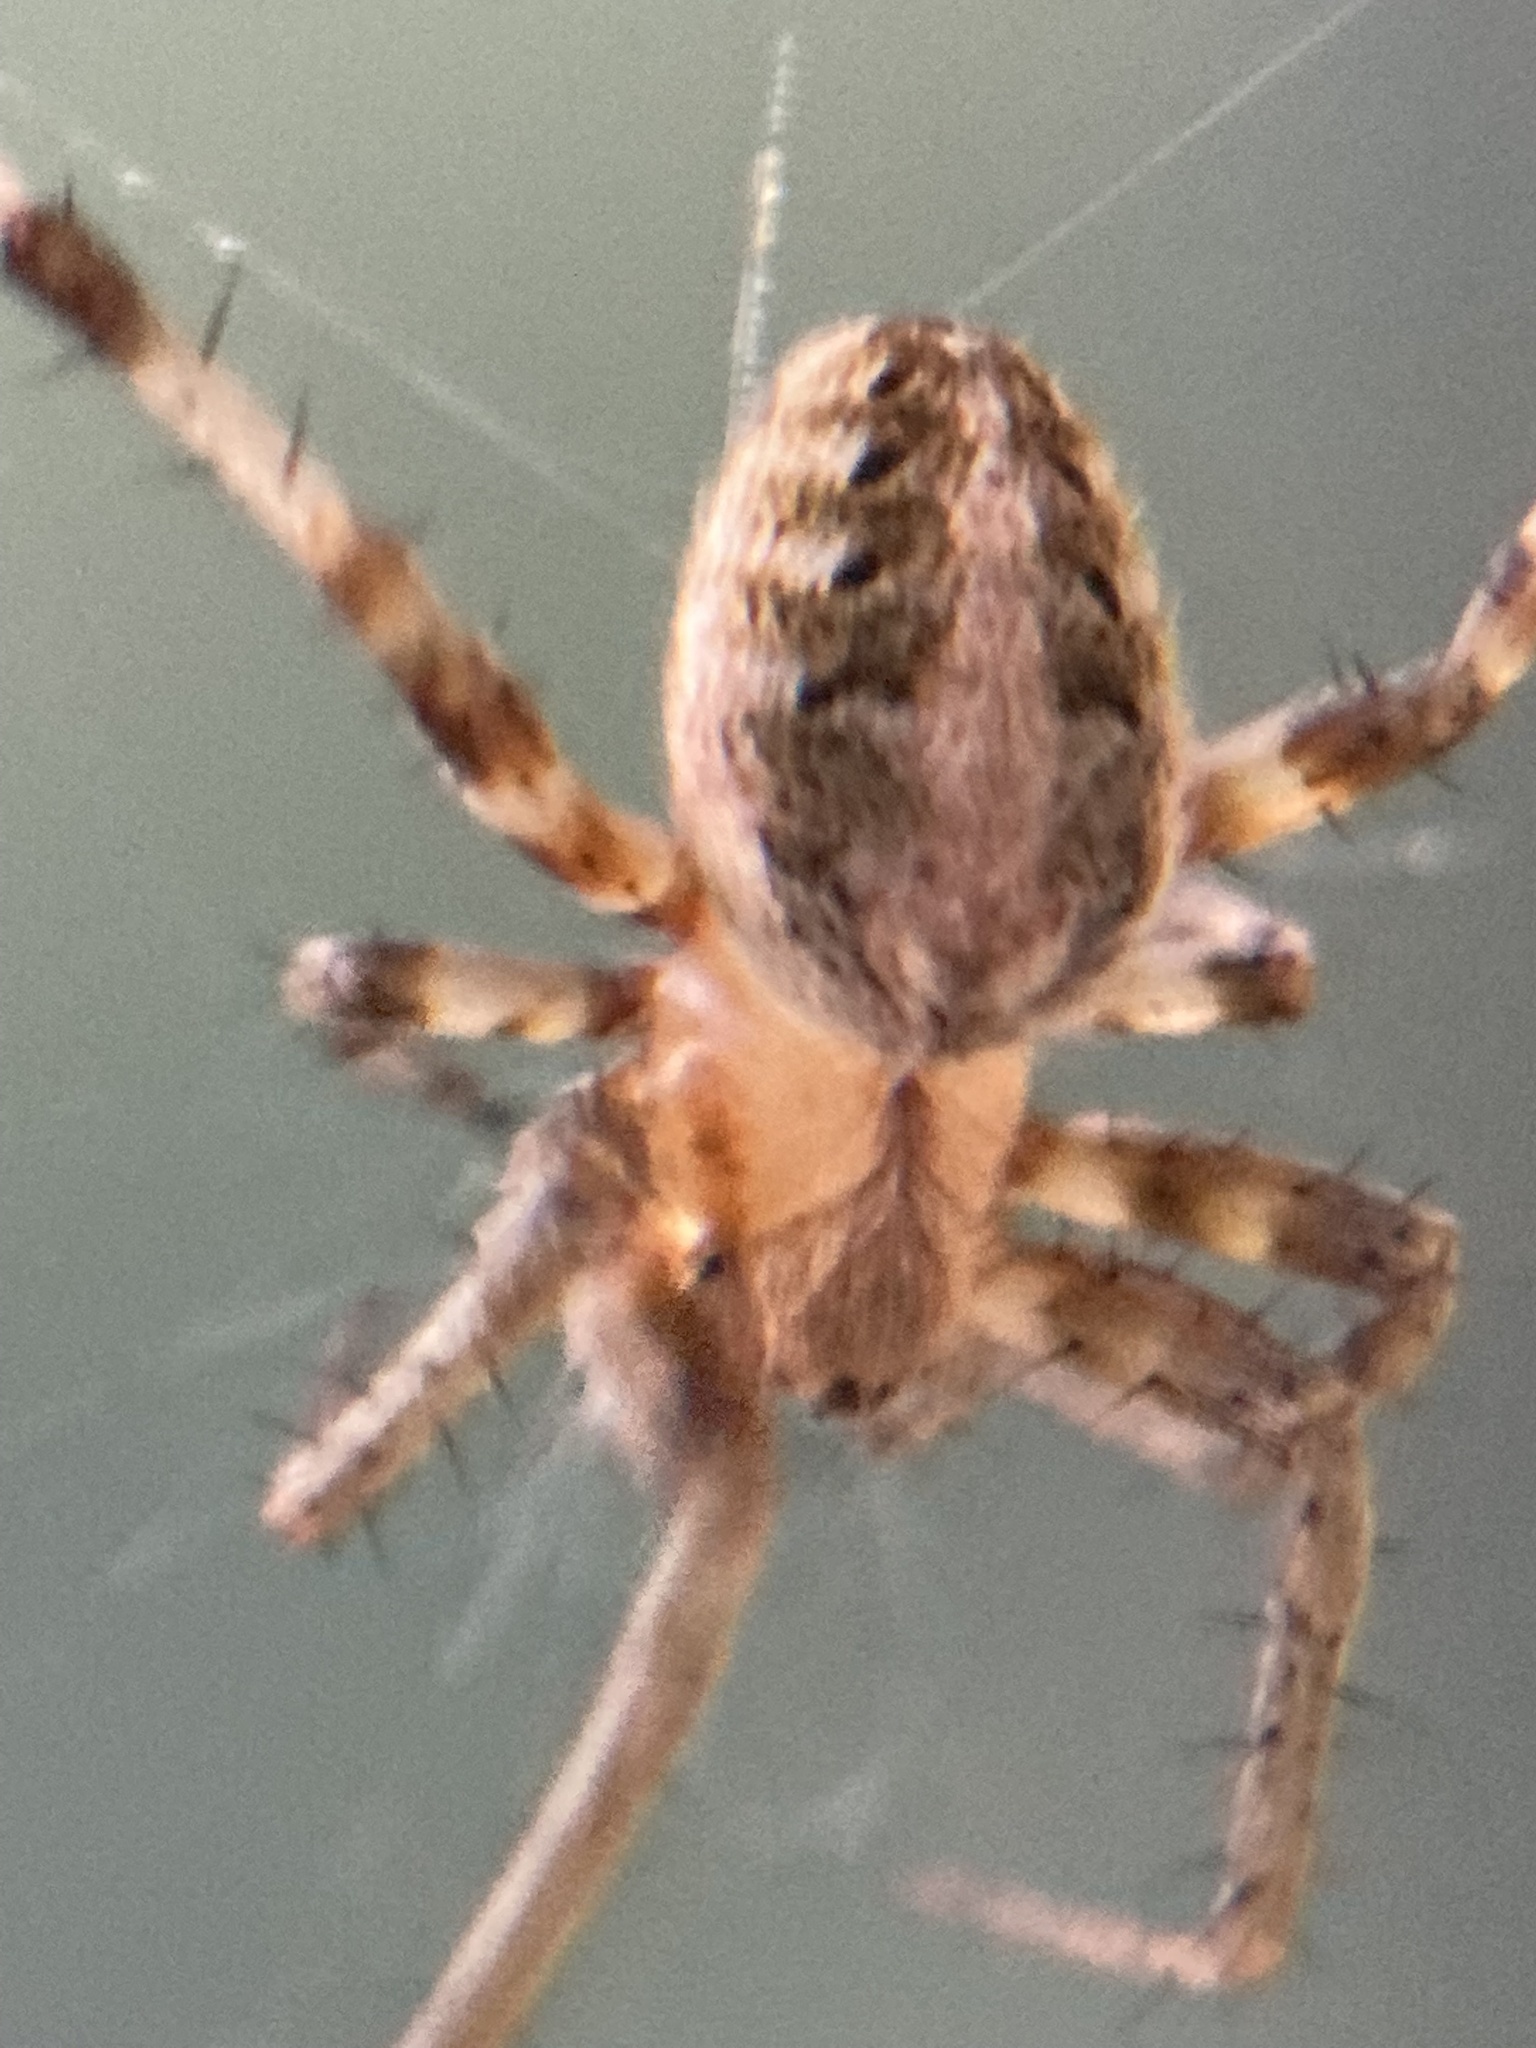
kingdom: Animalia
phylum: Arthropoda
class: Arachnida
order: Araneae
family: Araneidae
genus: Neoscona
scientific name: Neoscona arabesca
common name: Orb weavers
